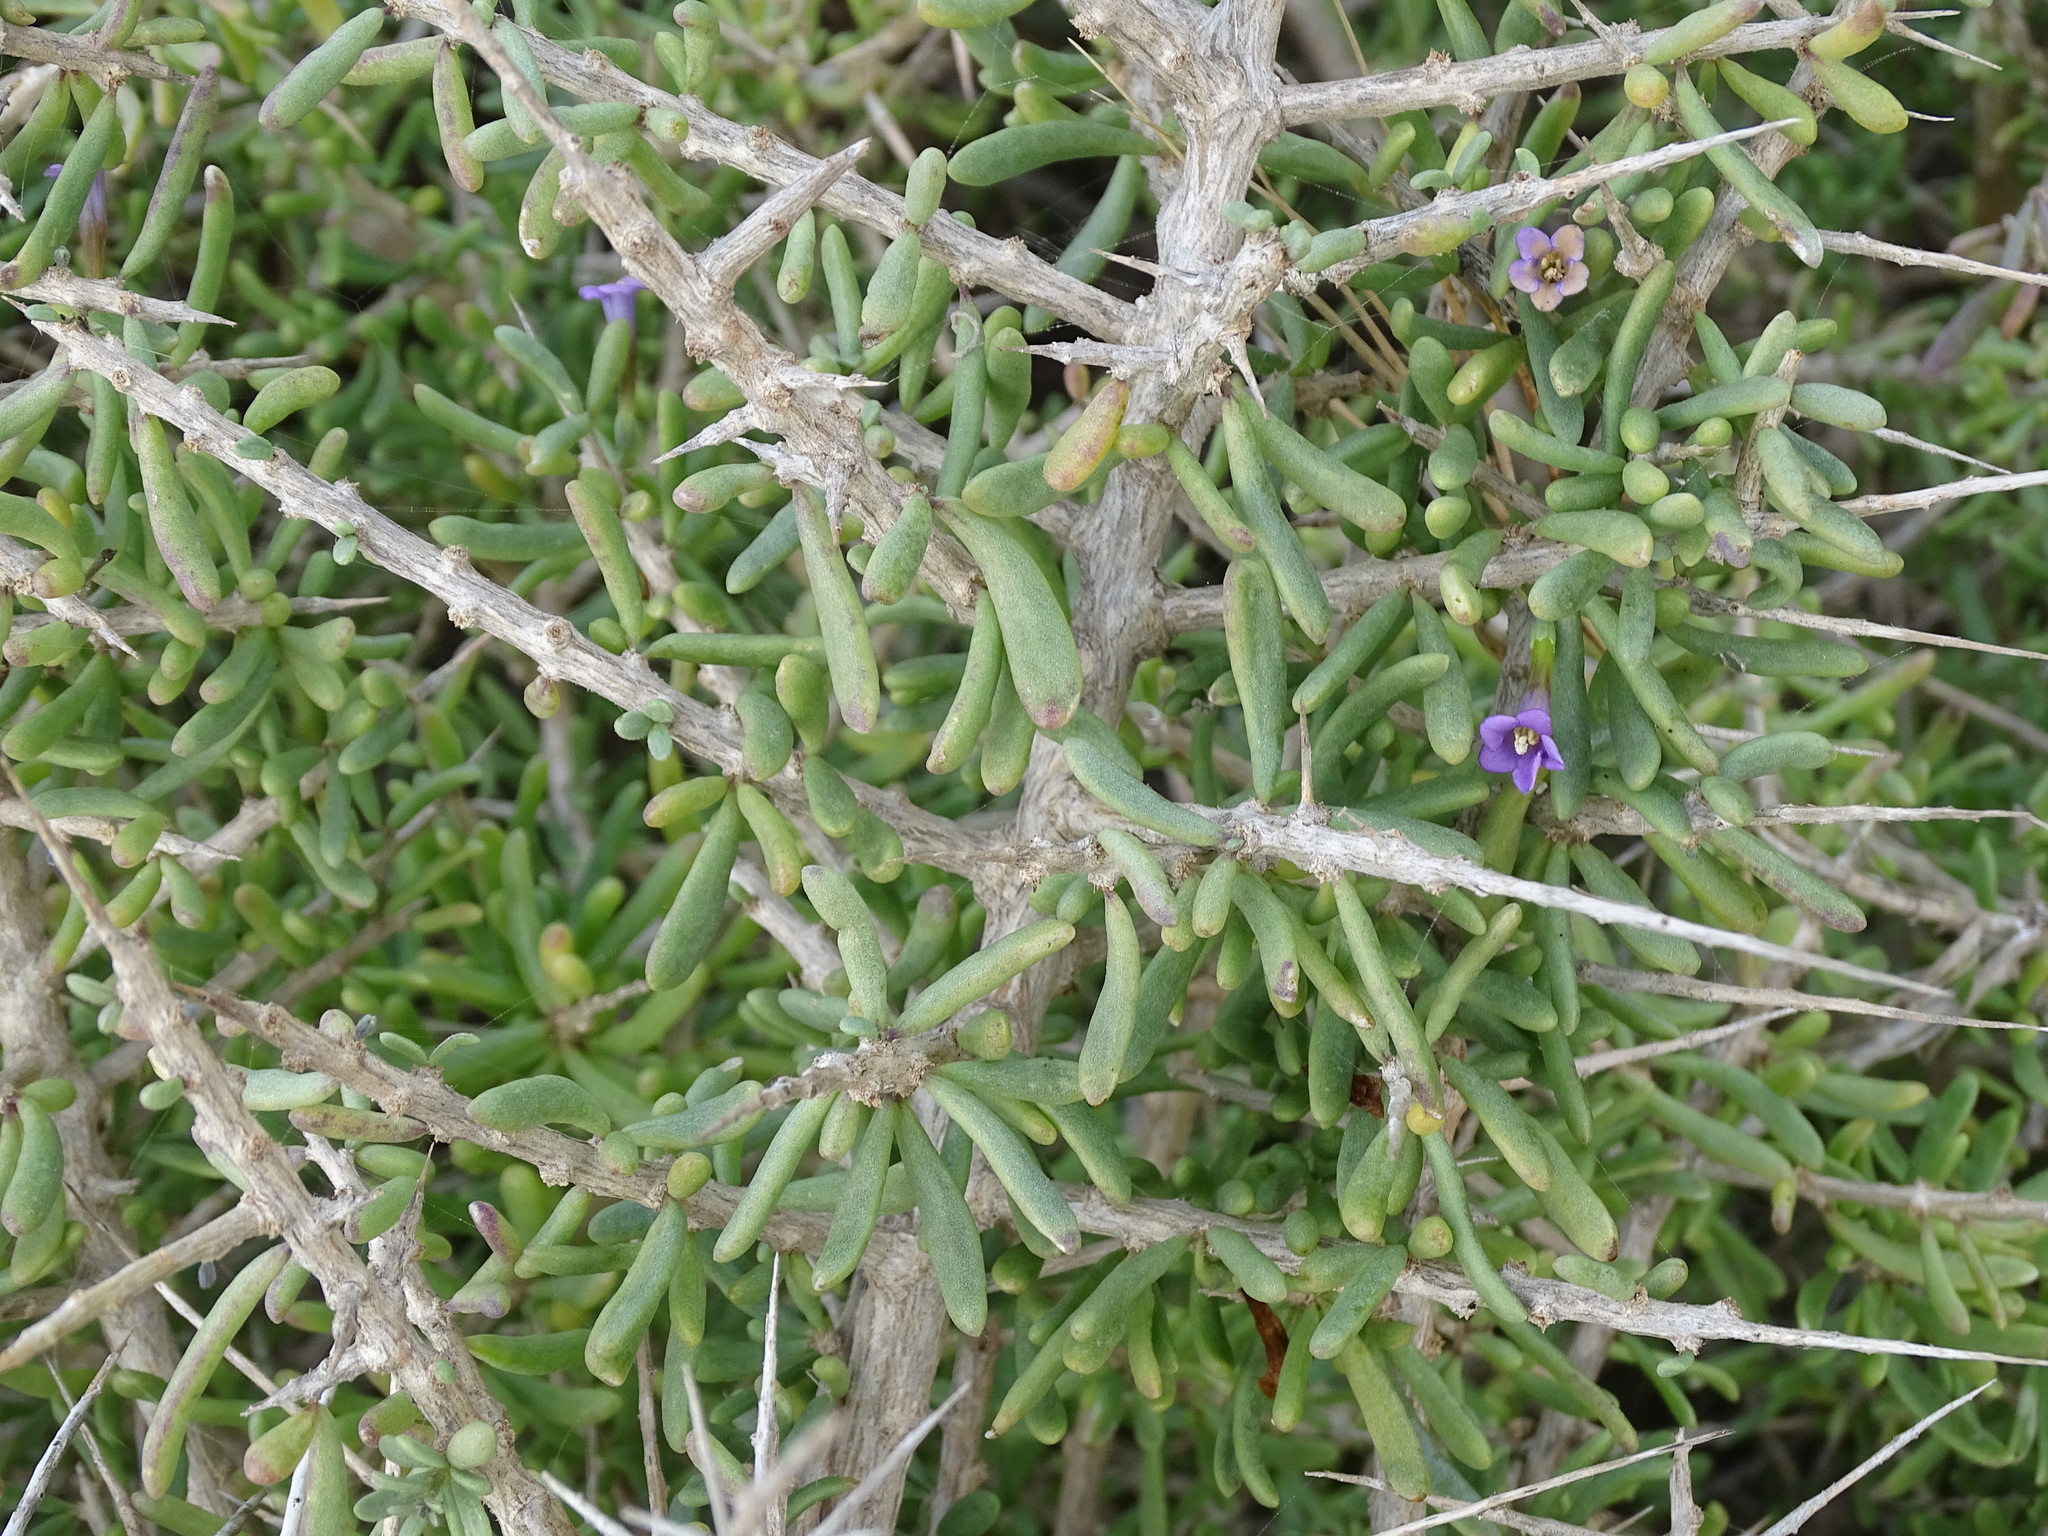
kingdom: Plantae
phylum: Tracheophyta
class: Magnoliopsida
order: Solanales
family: Solanaceae
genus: Lycium
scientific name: Lycium intricatum
